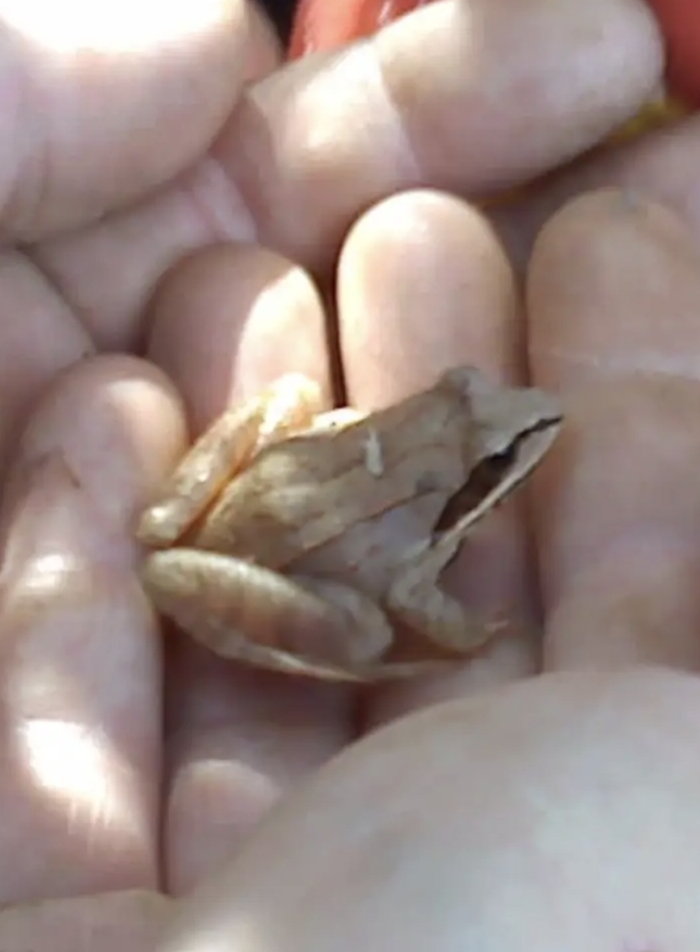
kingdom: Animalia
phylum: Chordata
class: Amphibia
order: Anura
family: Ranidae
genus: Lithobates
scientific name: Lithobates sylvaticus
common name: Wood frog
